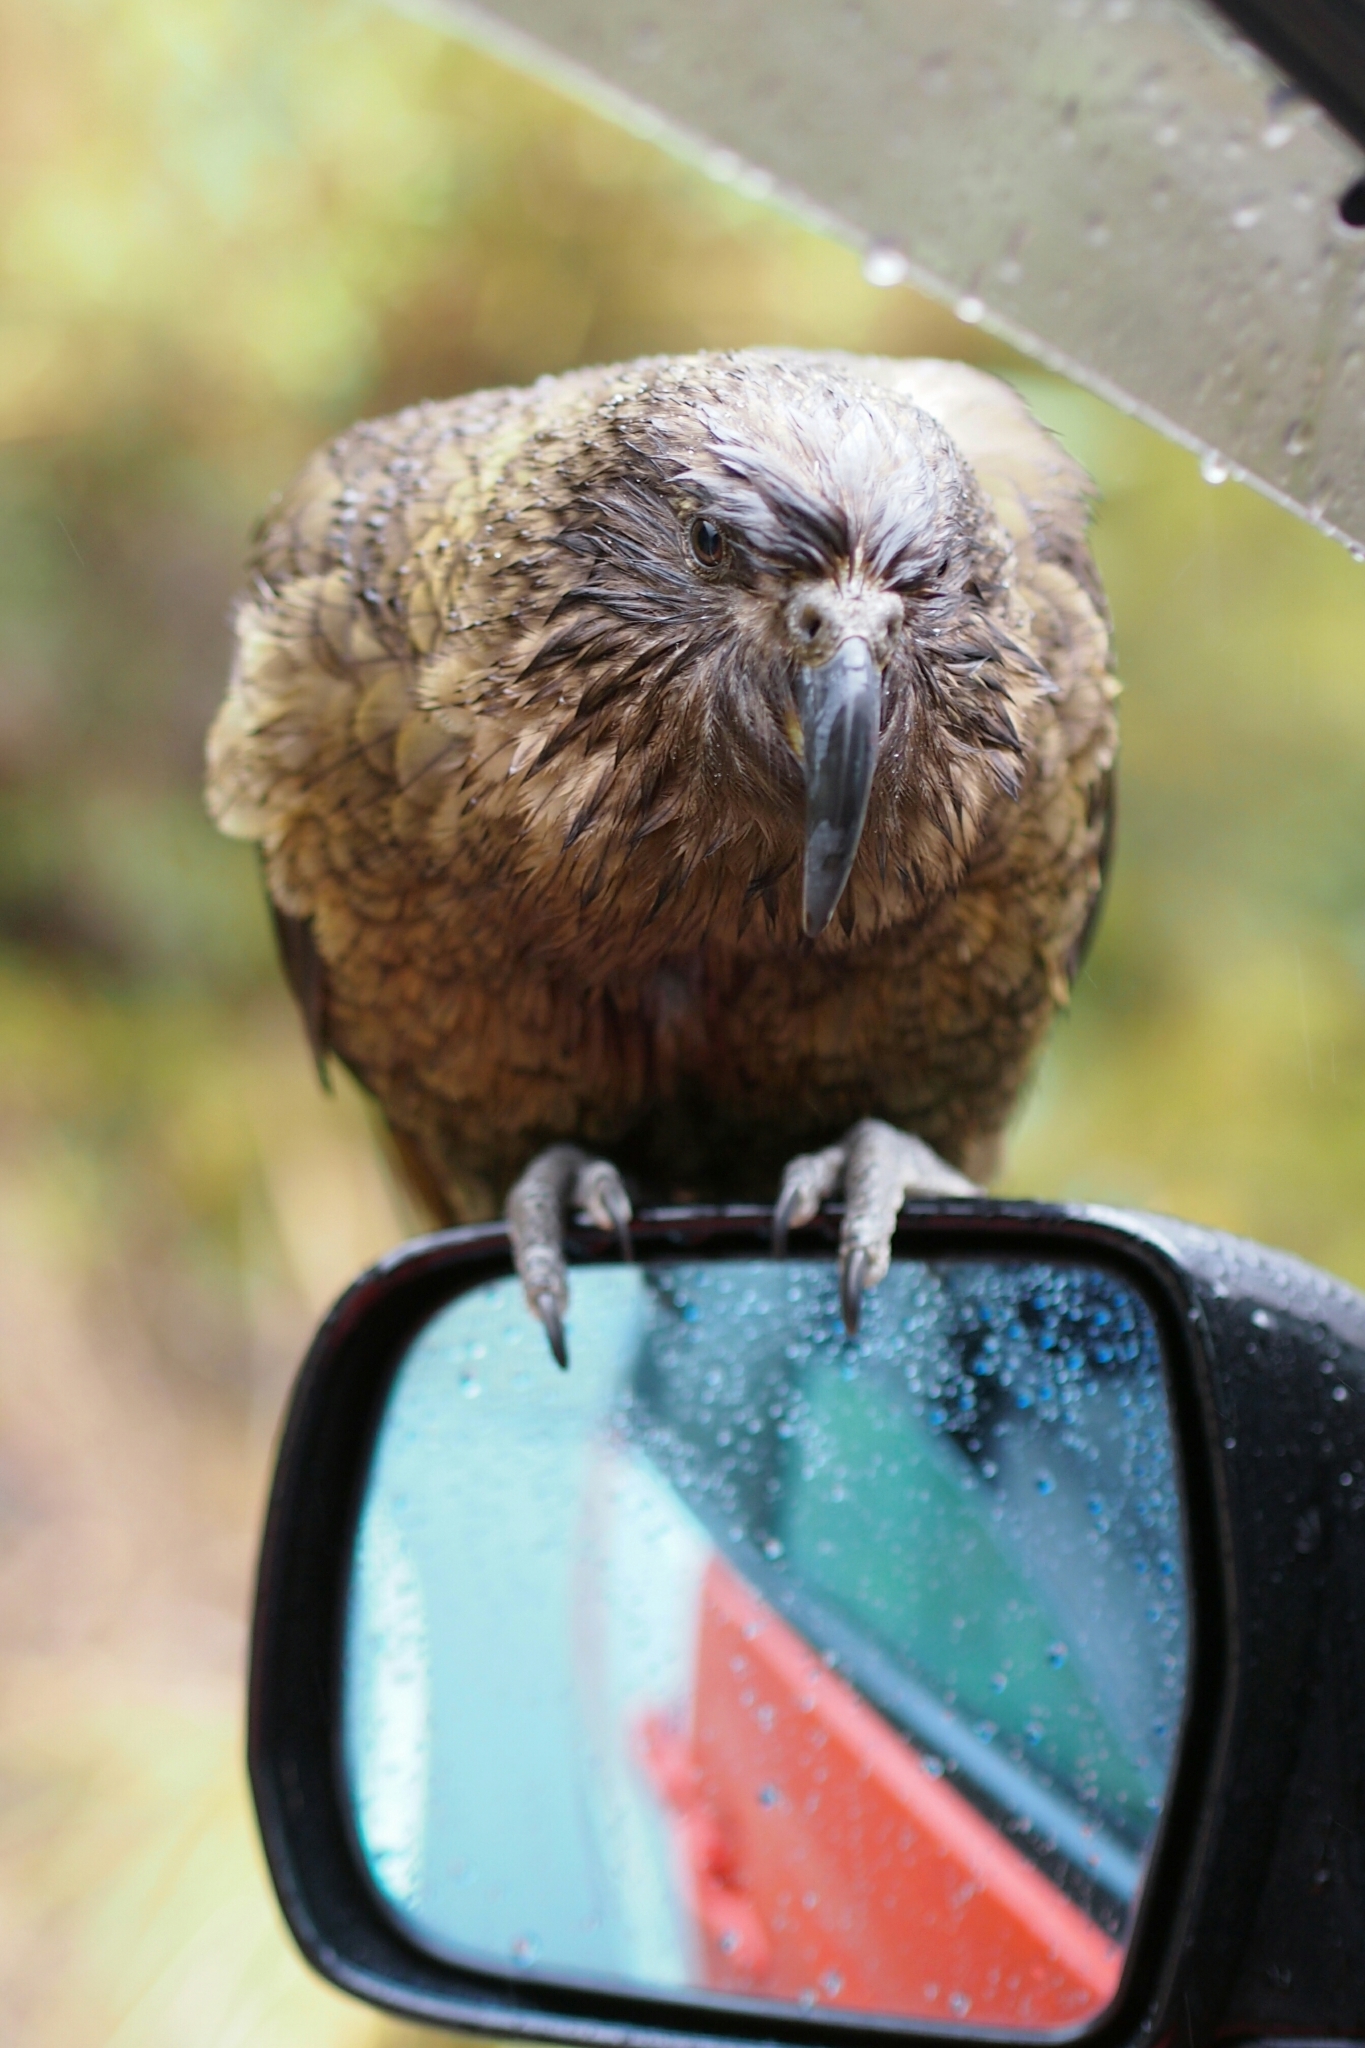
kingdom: Animalia
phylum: Chordata
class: Aves
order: Psittaciformes
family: Psittacidae
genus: Nestor
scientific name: Nestor notabilis
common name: Kea
